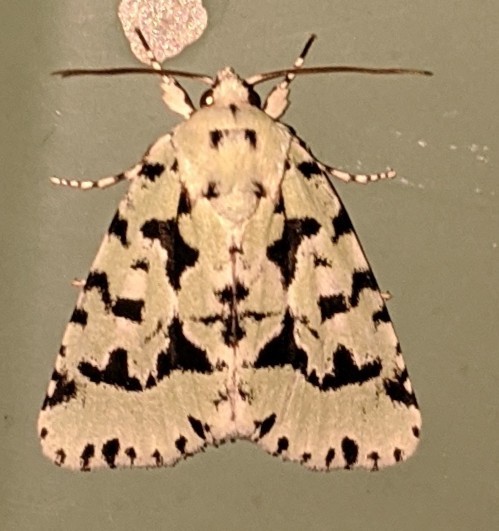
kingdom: Animalia
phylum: Arthropoda
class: Insecta
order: Lepidoptera
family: Noctuidae
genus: Acronicta
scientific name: Acronicta fallax
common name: Green marvel
